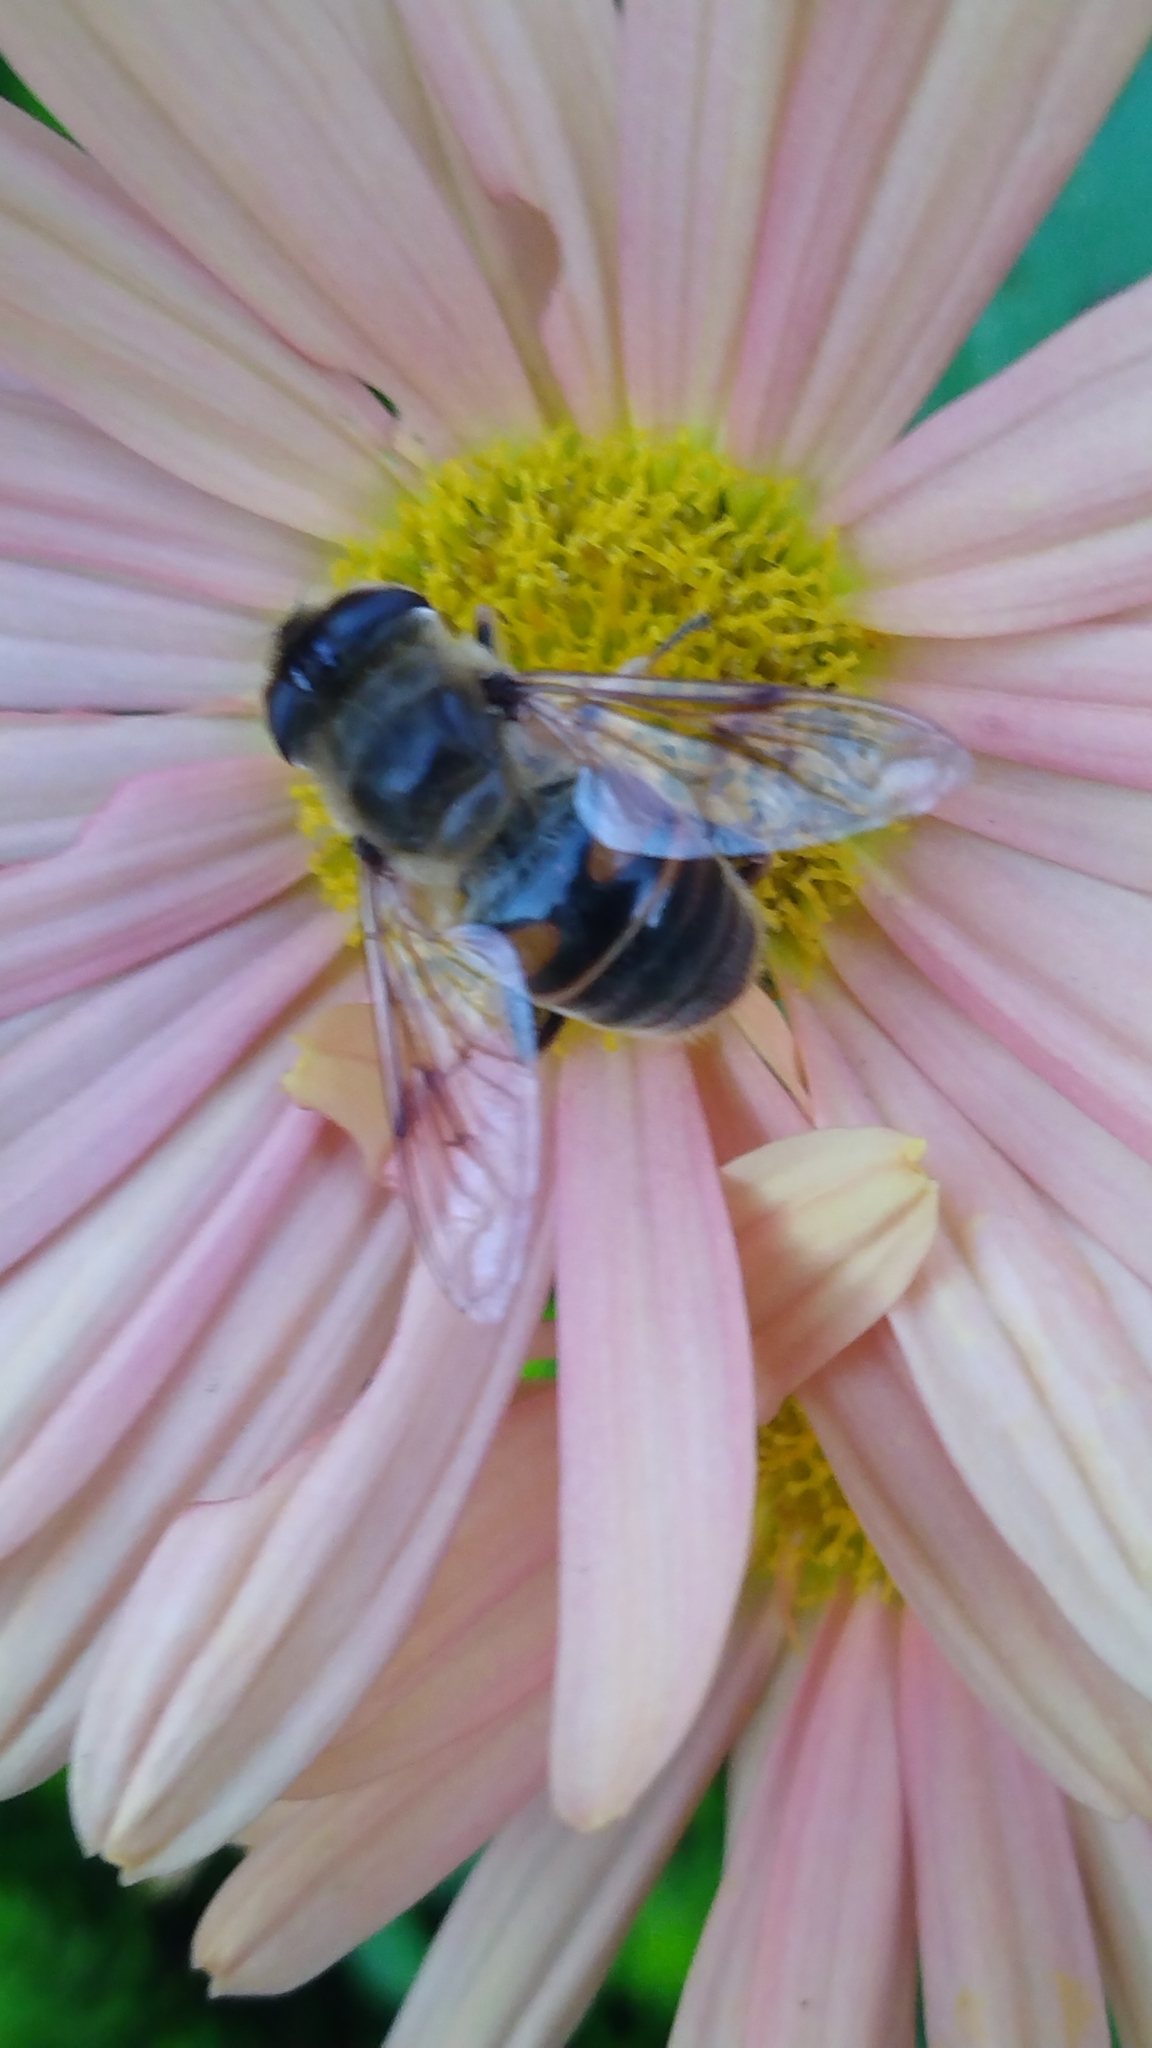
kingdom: Animalia
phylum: Arthropoda
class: Insecta
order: Diptera
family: Syrphidae
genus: Eristalis
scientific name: Eristalis tenax
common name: Drone fly
